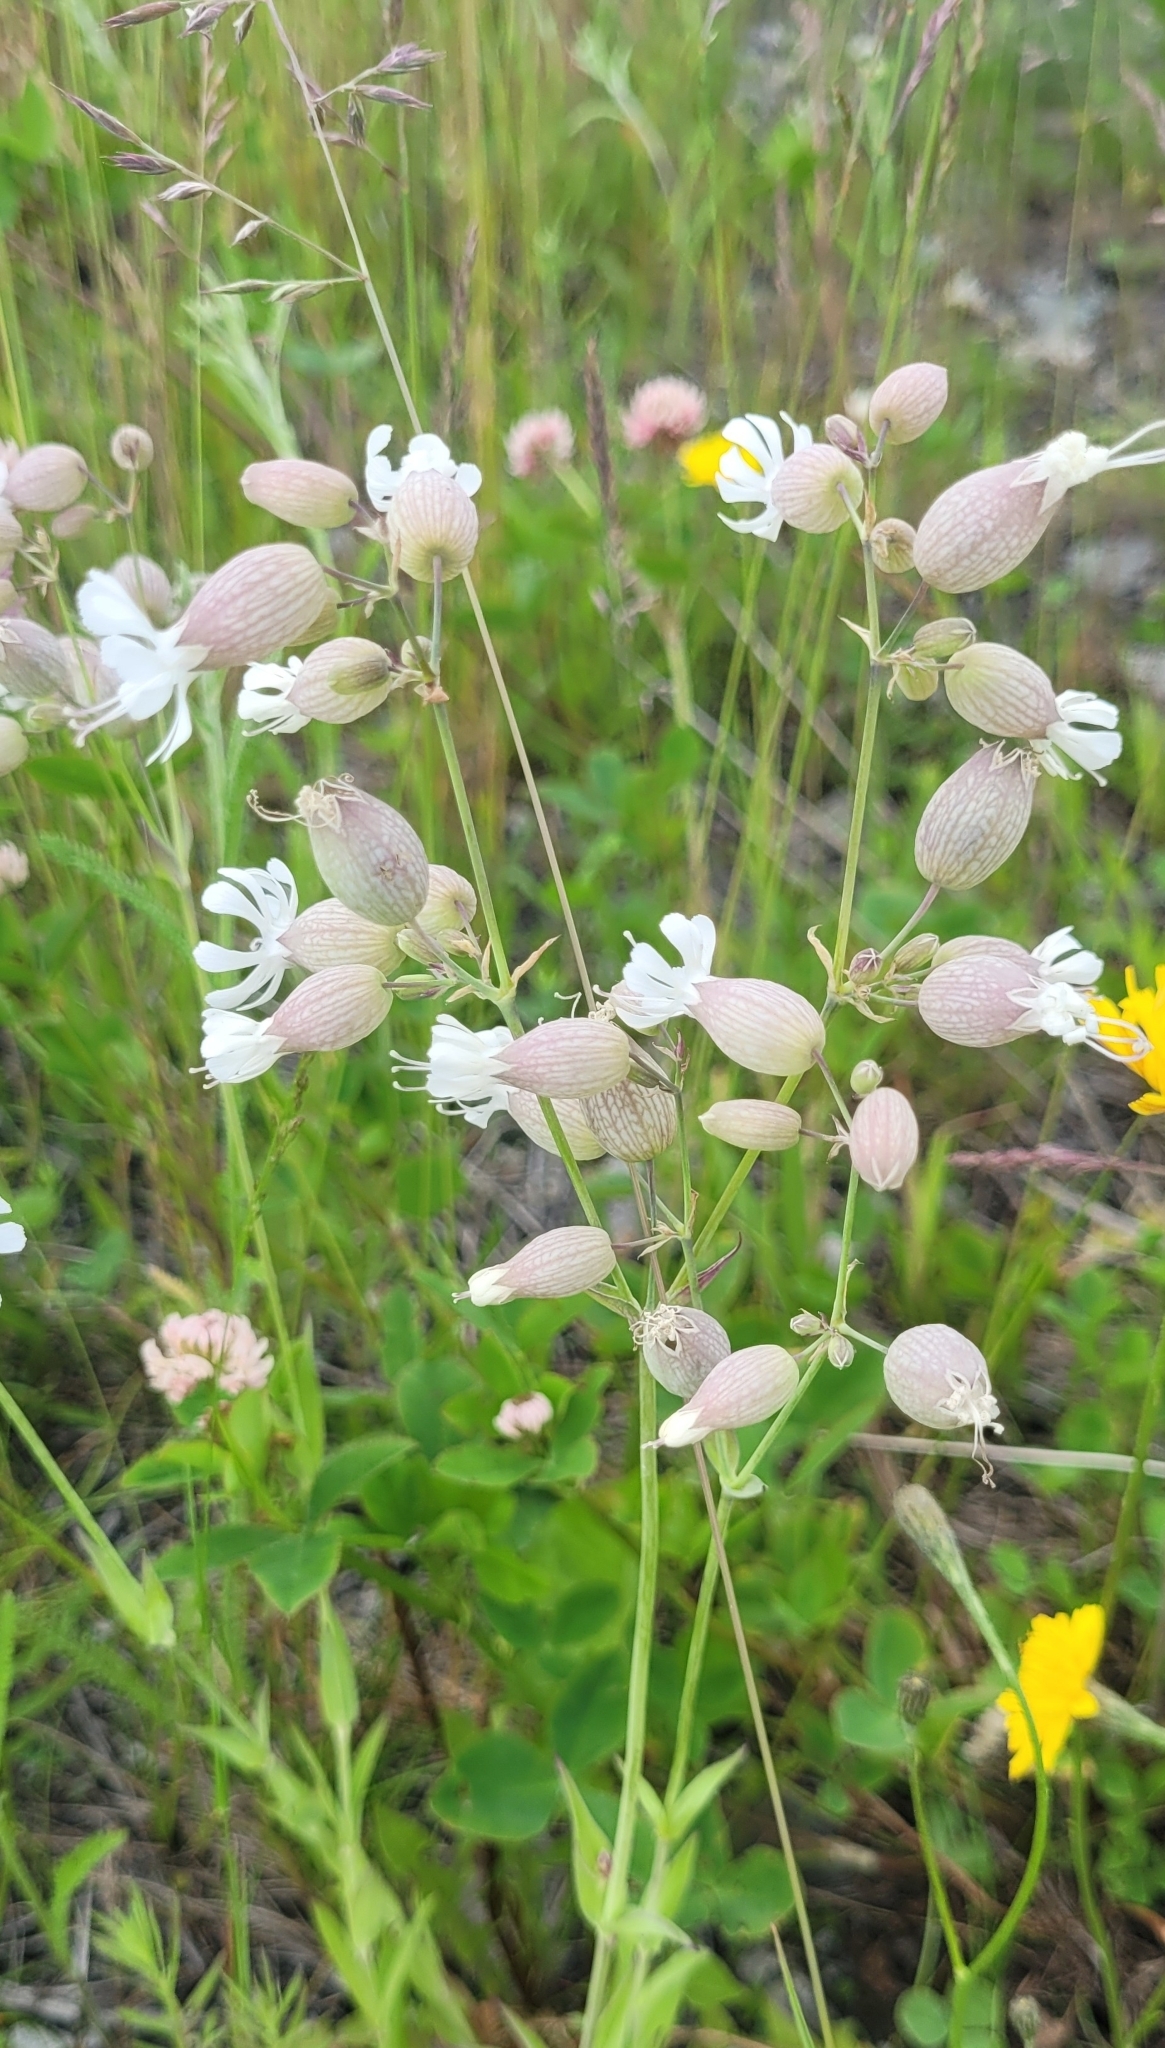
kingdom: Plantae
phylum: Tracheophyta
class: Magnoliopsida
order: Caryophyllales
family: Caryophyllaceae
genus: Silene
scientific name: Silene vulgaris
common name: Bladder campion
